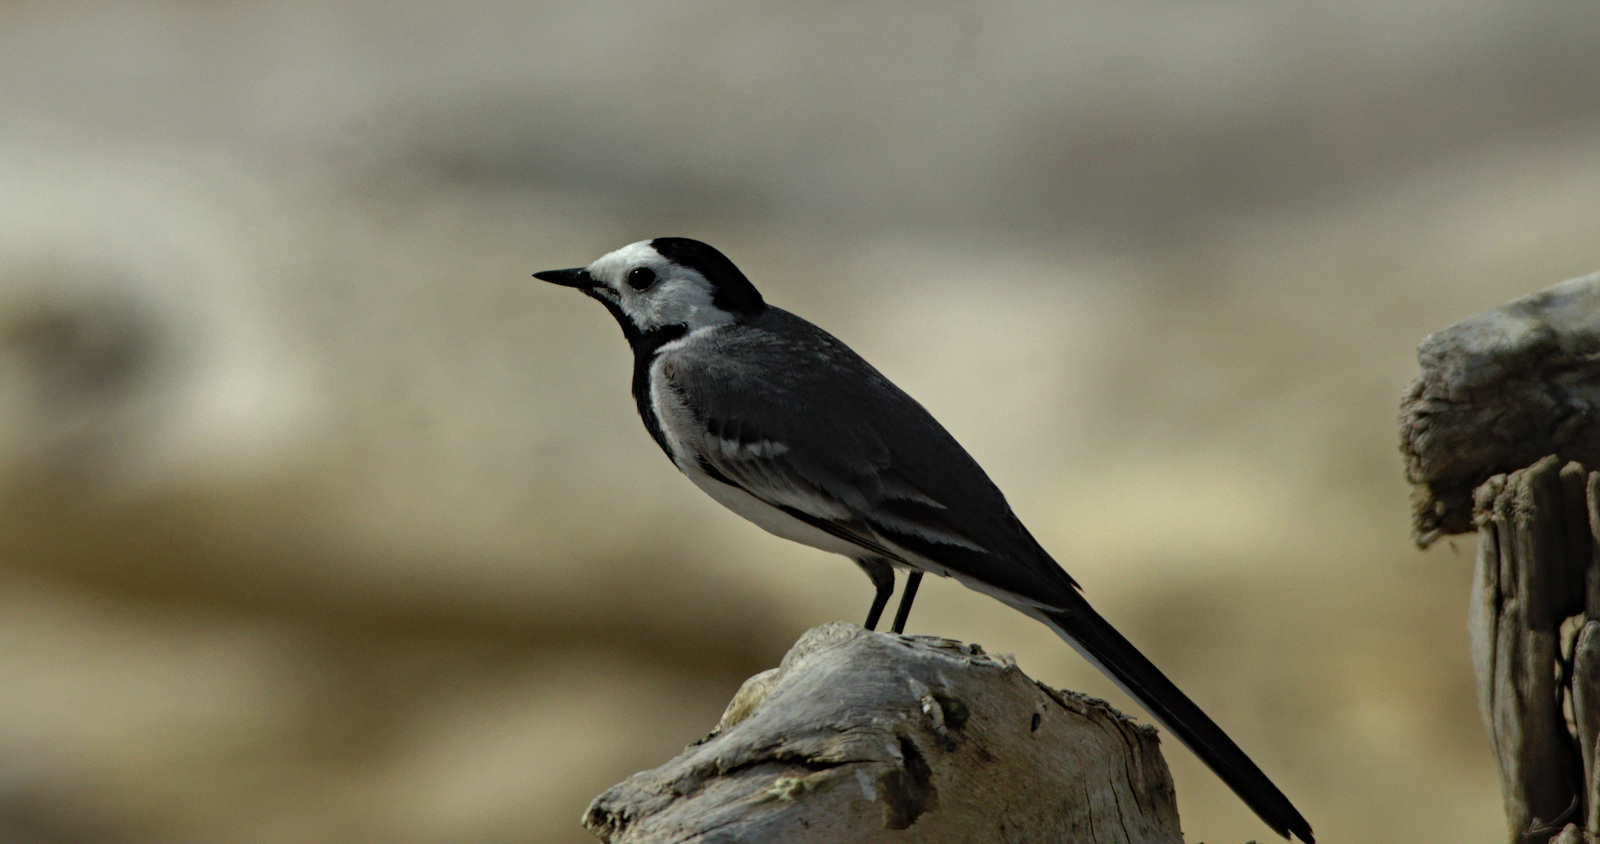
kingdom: Animalia
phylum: Chordata
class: Aves
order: Passeriformes
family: Motacillidae
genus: Motacilla
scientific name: Motacilla alba
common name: White wagtail
